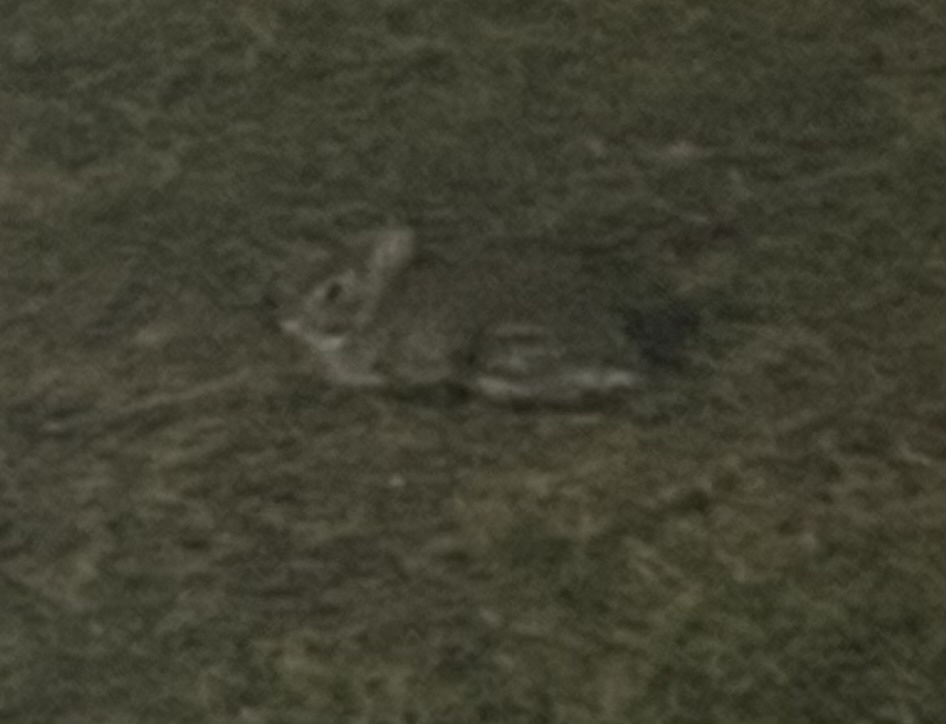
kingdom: Animalia
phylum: Chordata
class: Mammalia
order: Lagomorpha
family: Leporidae
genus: Sylvilagus
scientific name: Sylvilagus floridanus
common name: Eastern cottontail
